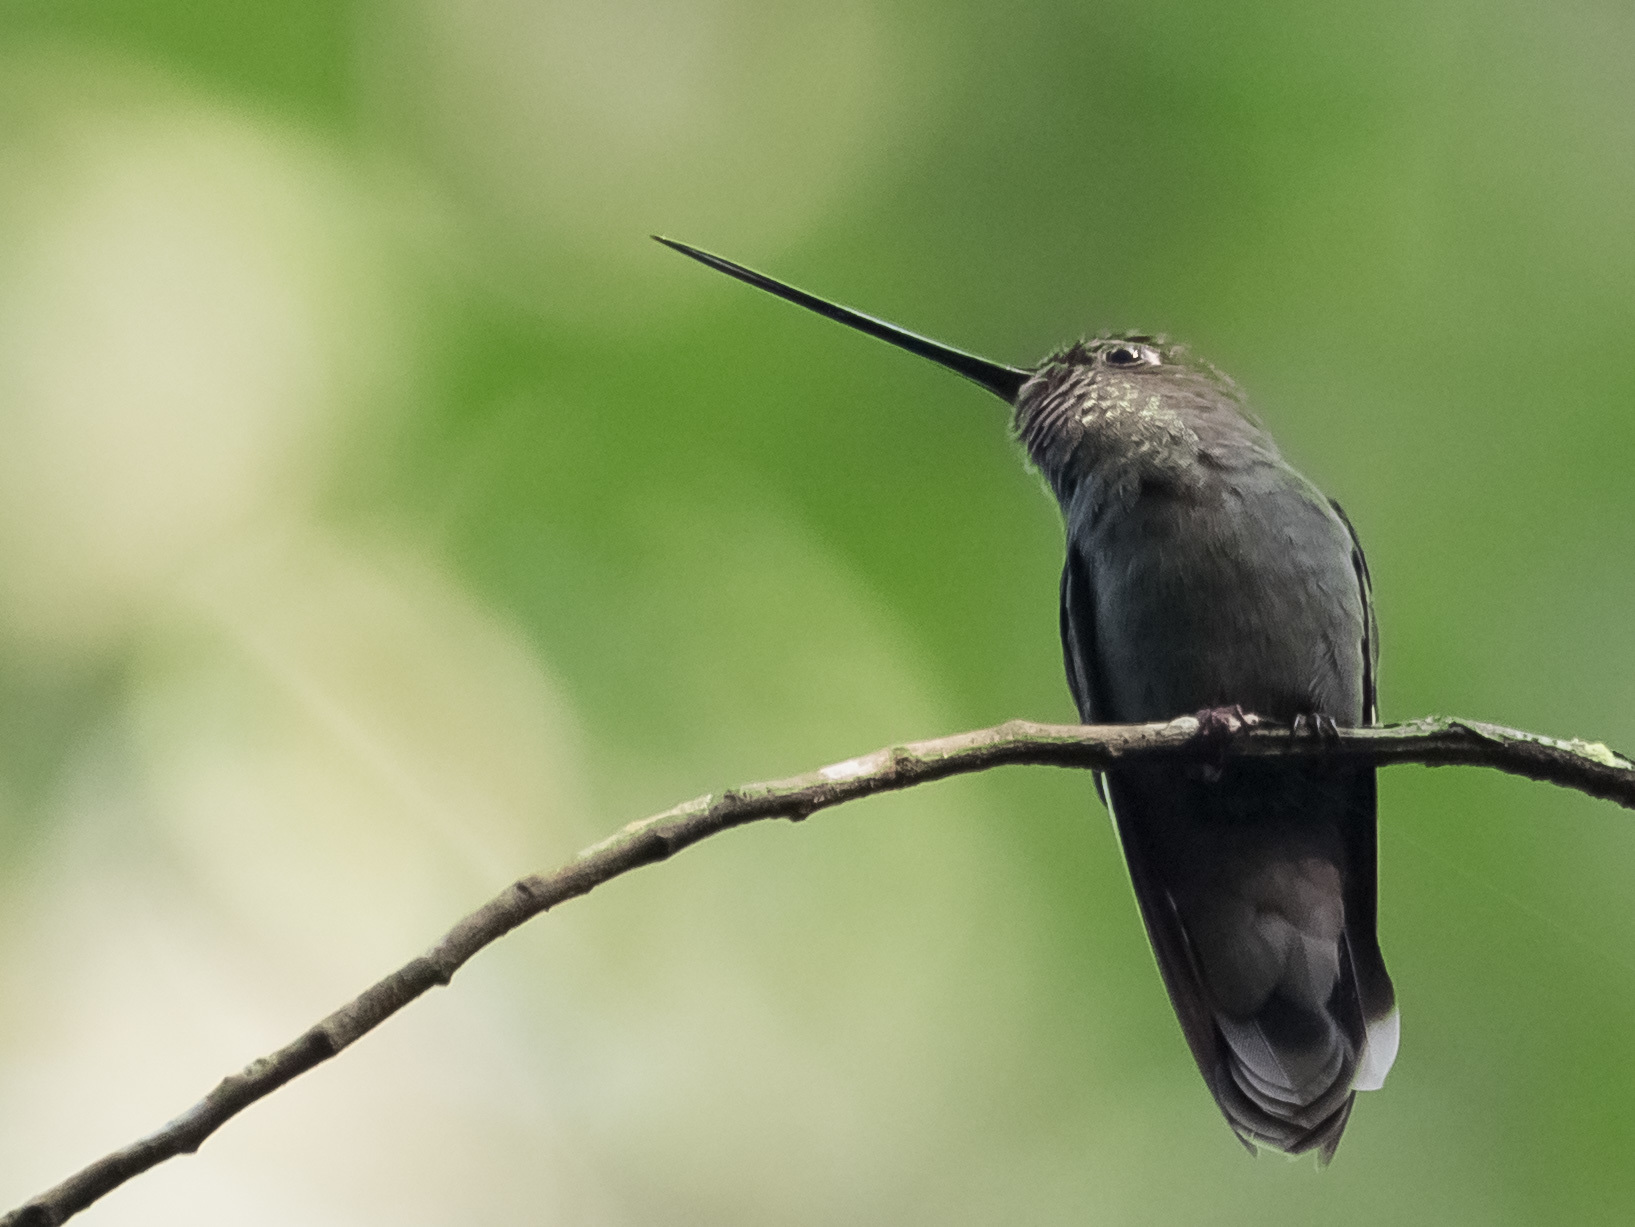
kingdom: Animalia
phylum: Chordata
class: Aves
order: Apodiformes
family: Trochilidae
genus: Doryfera
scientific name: Doryfera ludovicae
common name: Green-fronted lancebill
